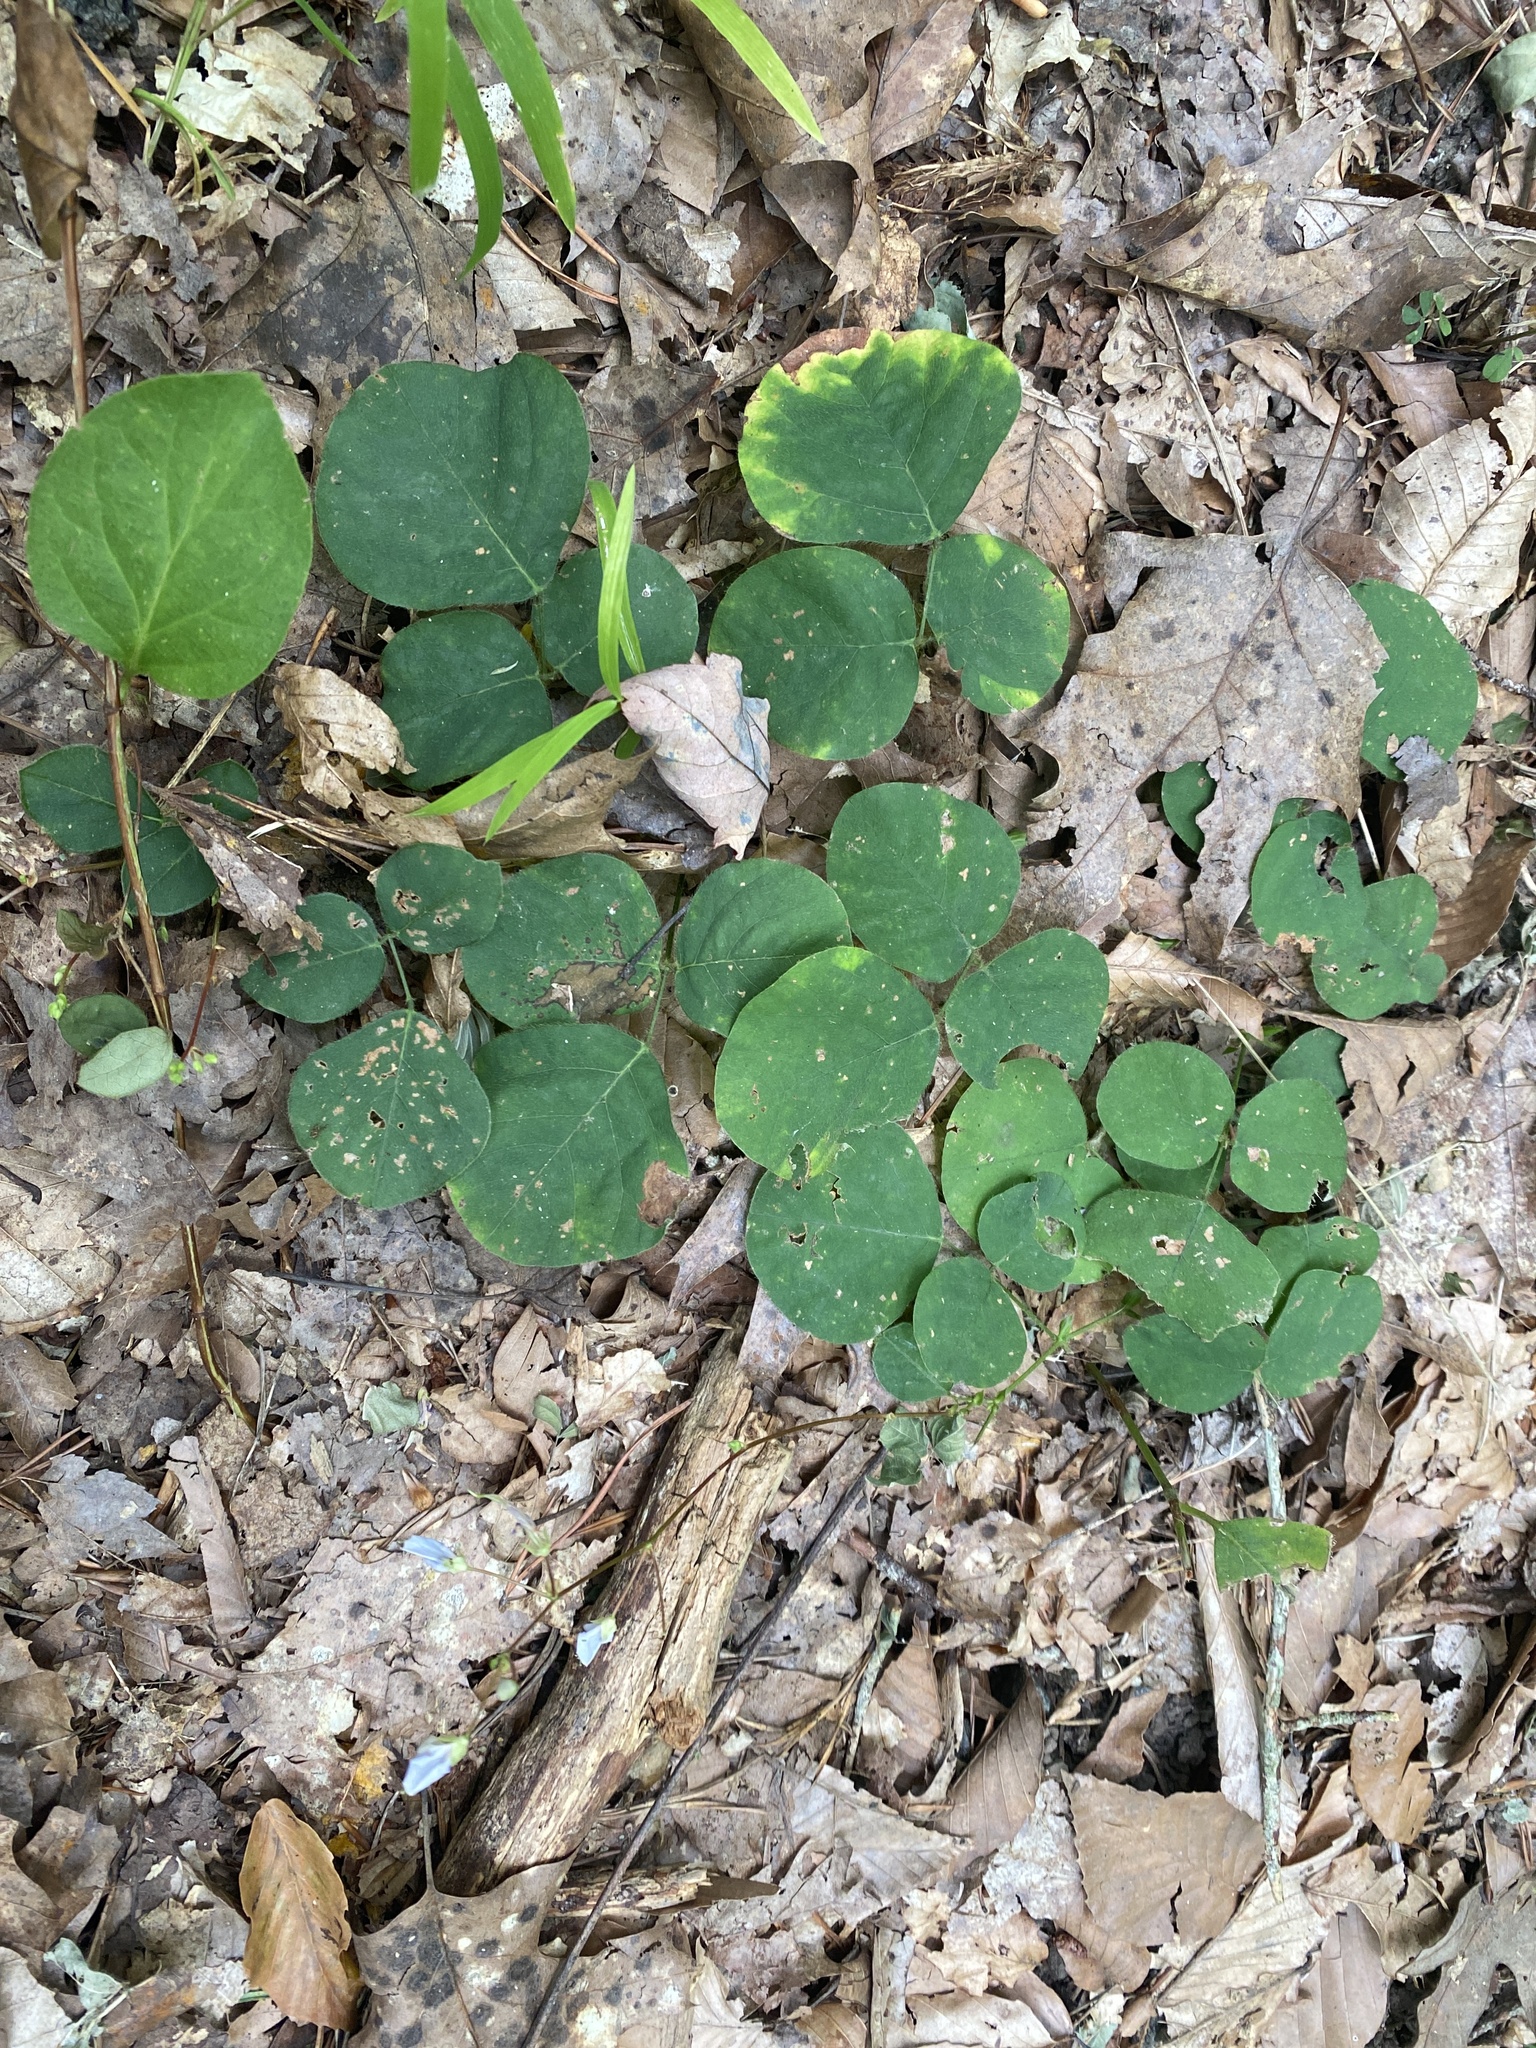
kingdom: Plantae
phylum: Tracheophyta
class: Magnoliopsida
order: Fabales
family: Fabaceae
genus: Desmodium
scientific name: Desmodium rotundifolium
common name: Dollarleaf
